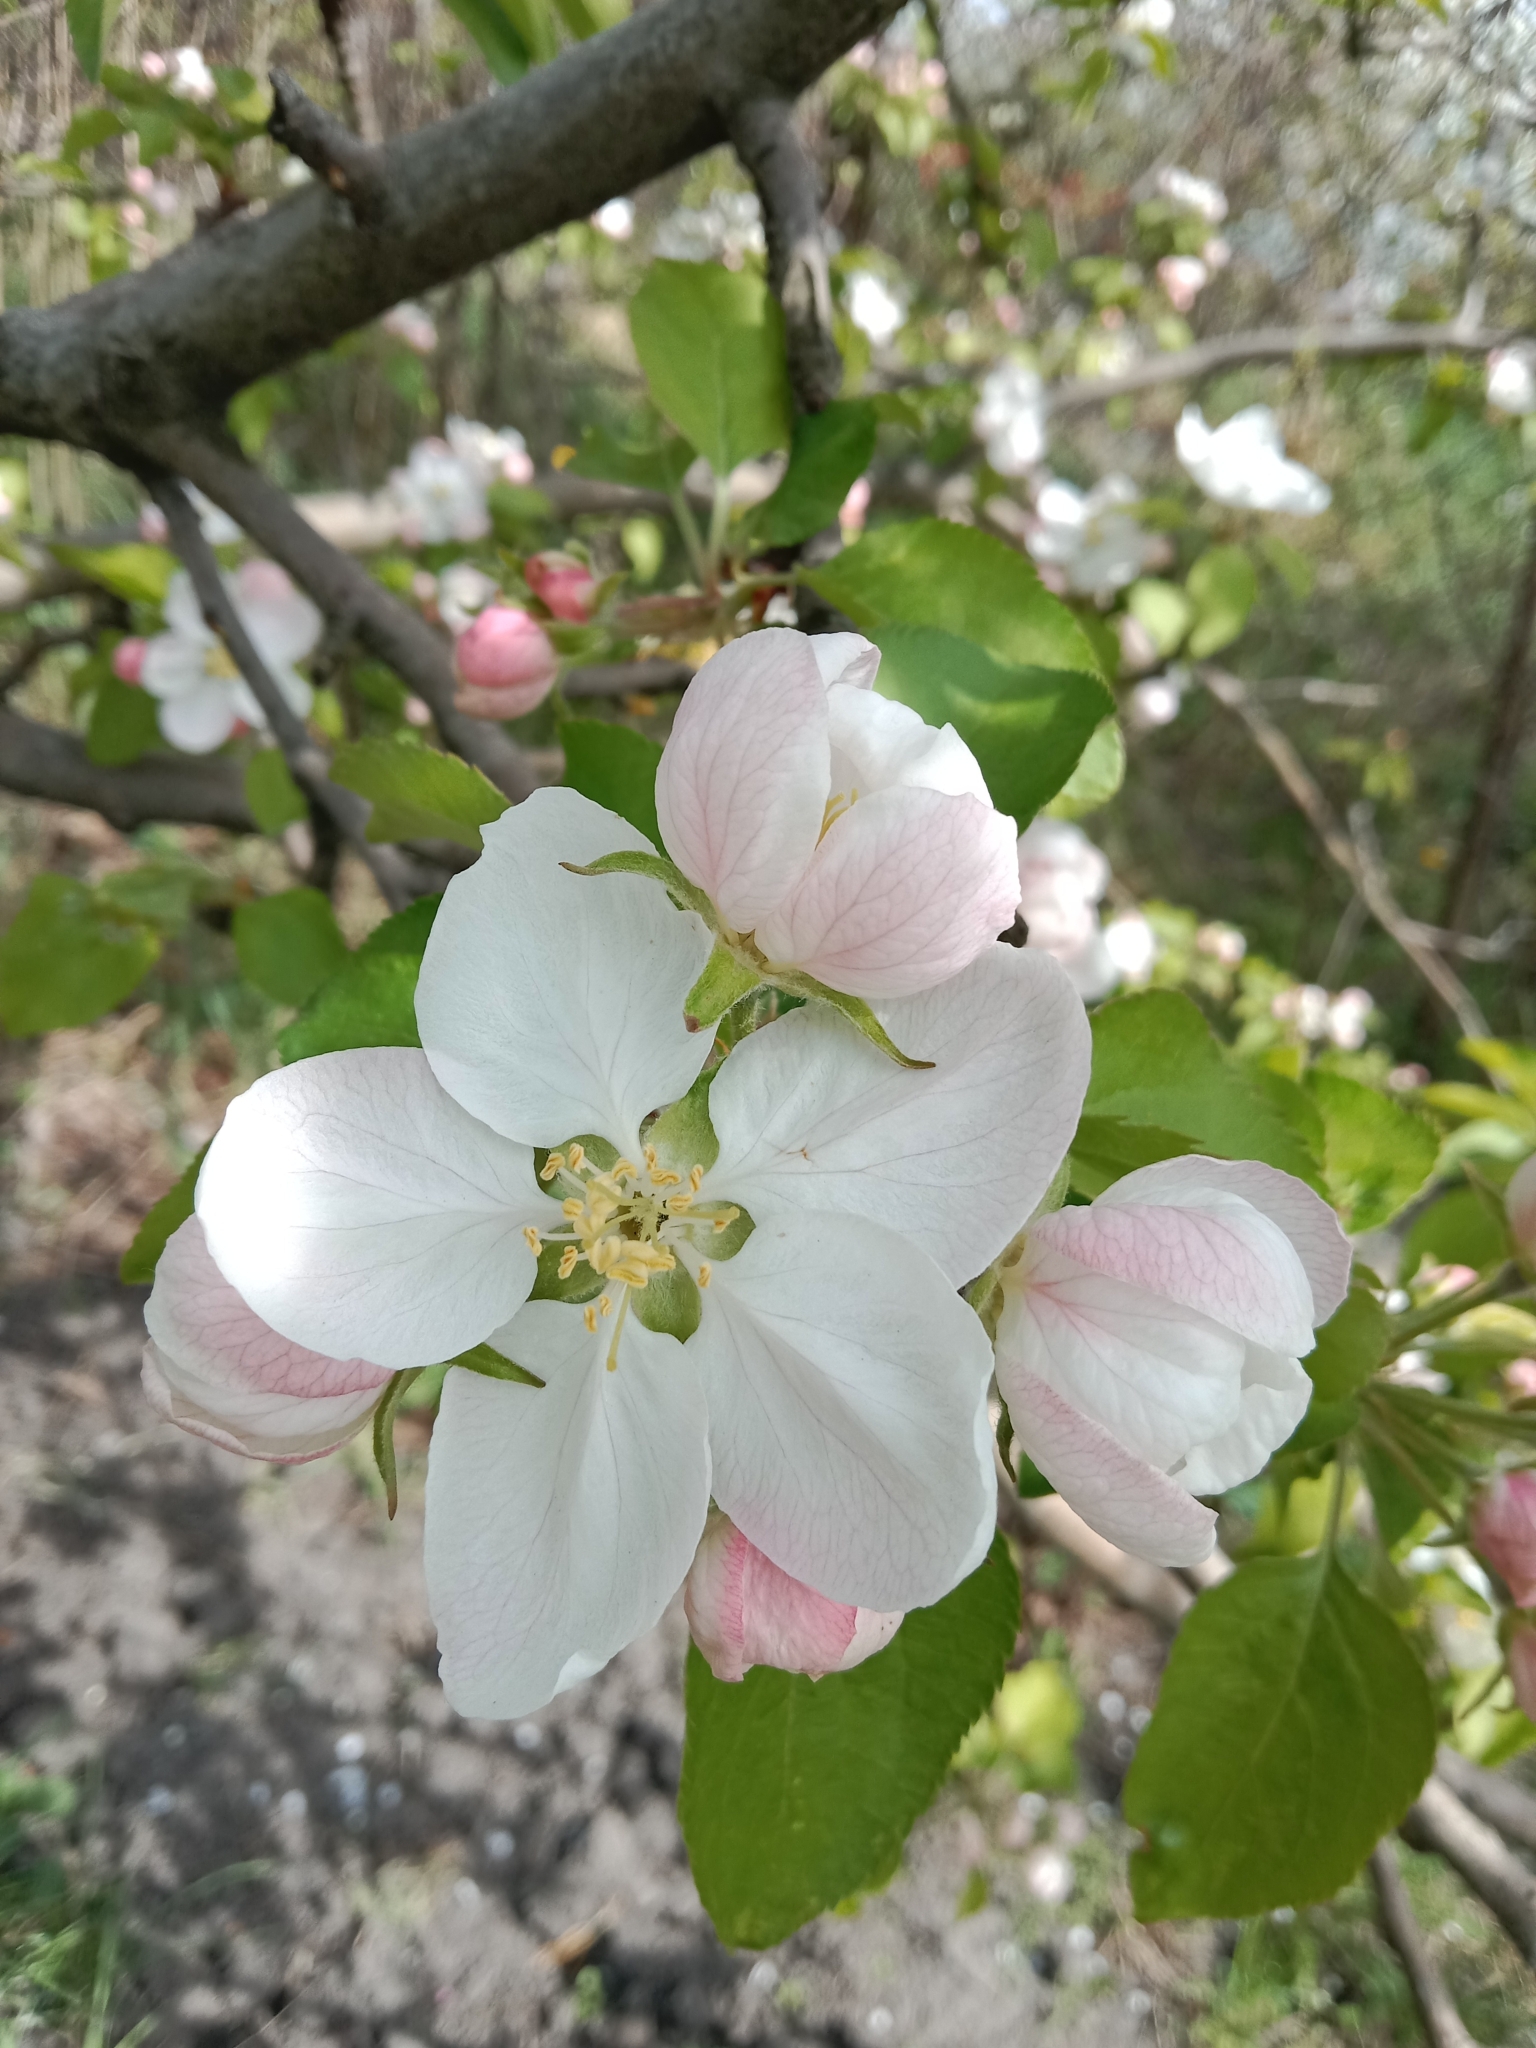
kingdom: Plantae
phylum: Tracheophyta
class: Magnoliopsida
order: Rosales
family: Rosaceae
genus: Malus
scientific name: Malus domestica
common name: Apple
